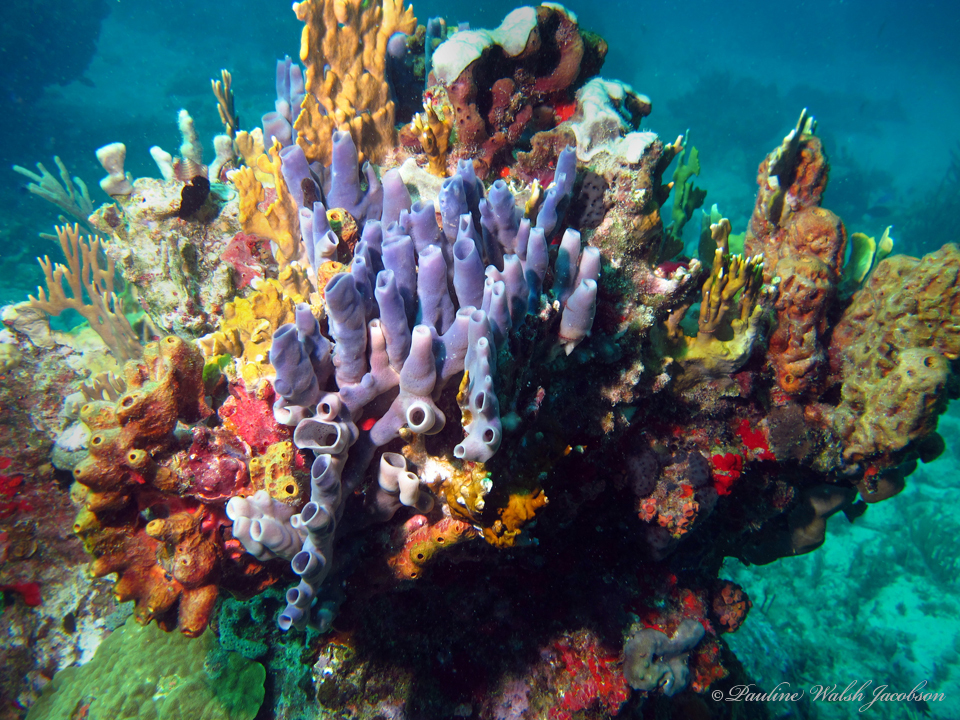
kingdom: Animalia
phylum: Porifera
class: Demospongiae
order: Haplosclerida
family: Callyspongiidae
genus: Callyspongia
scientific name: Callyspongia fallax
